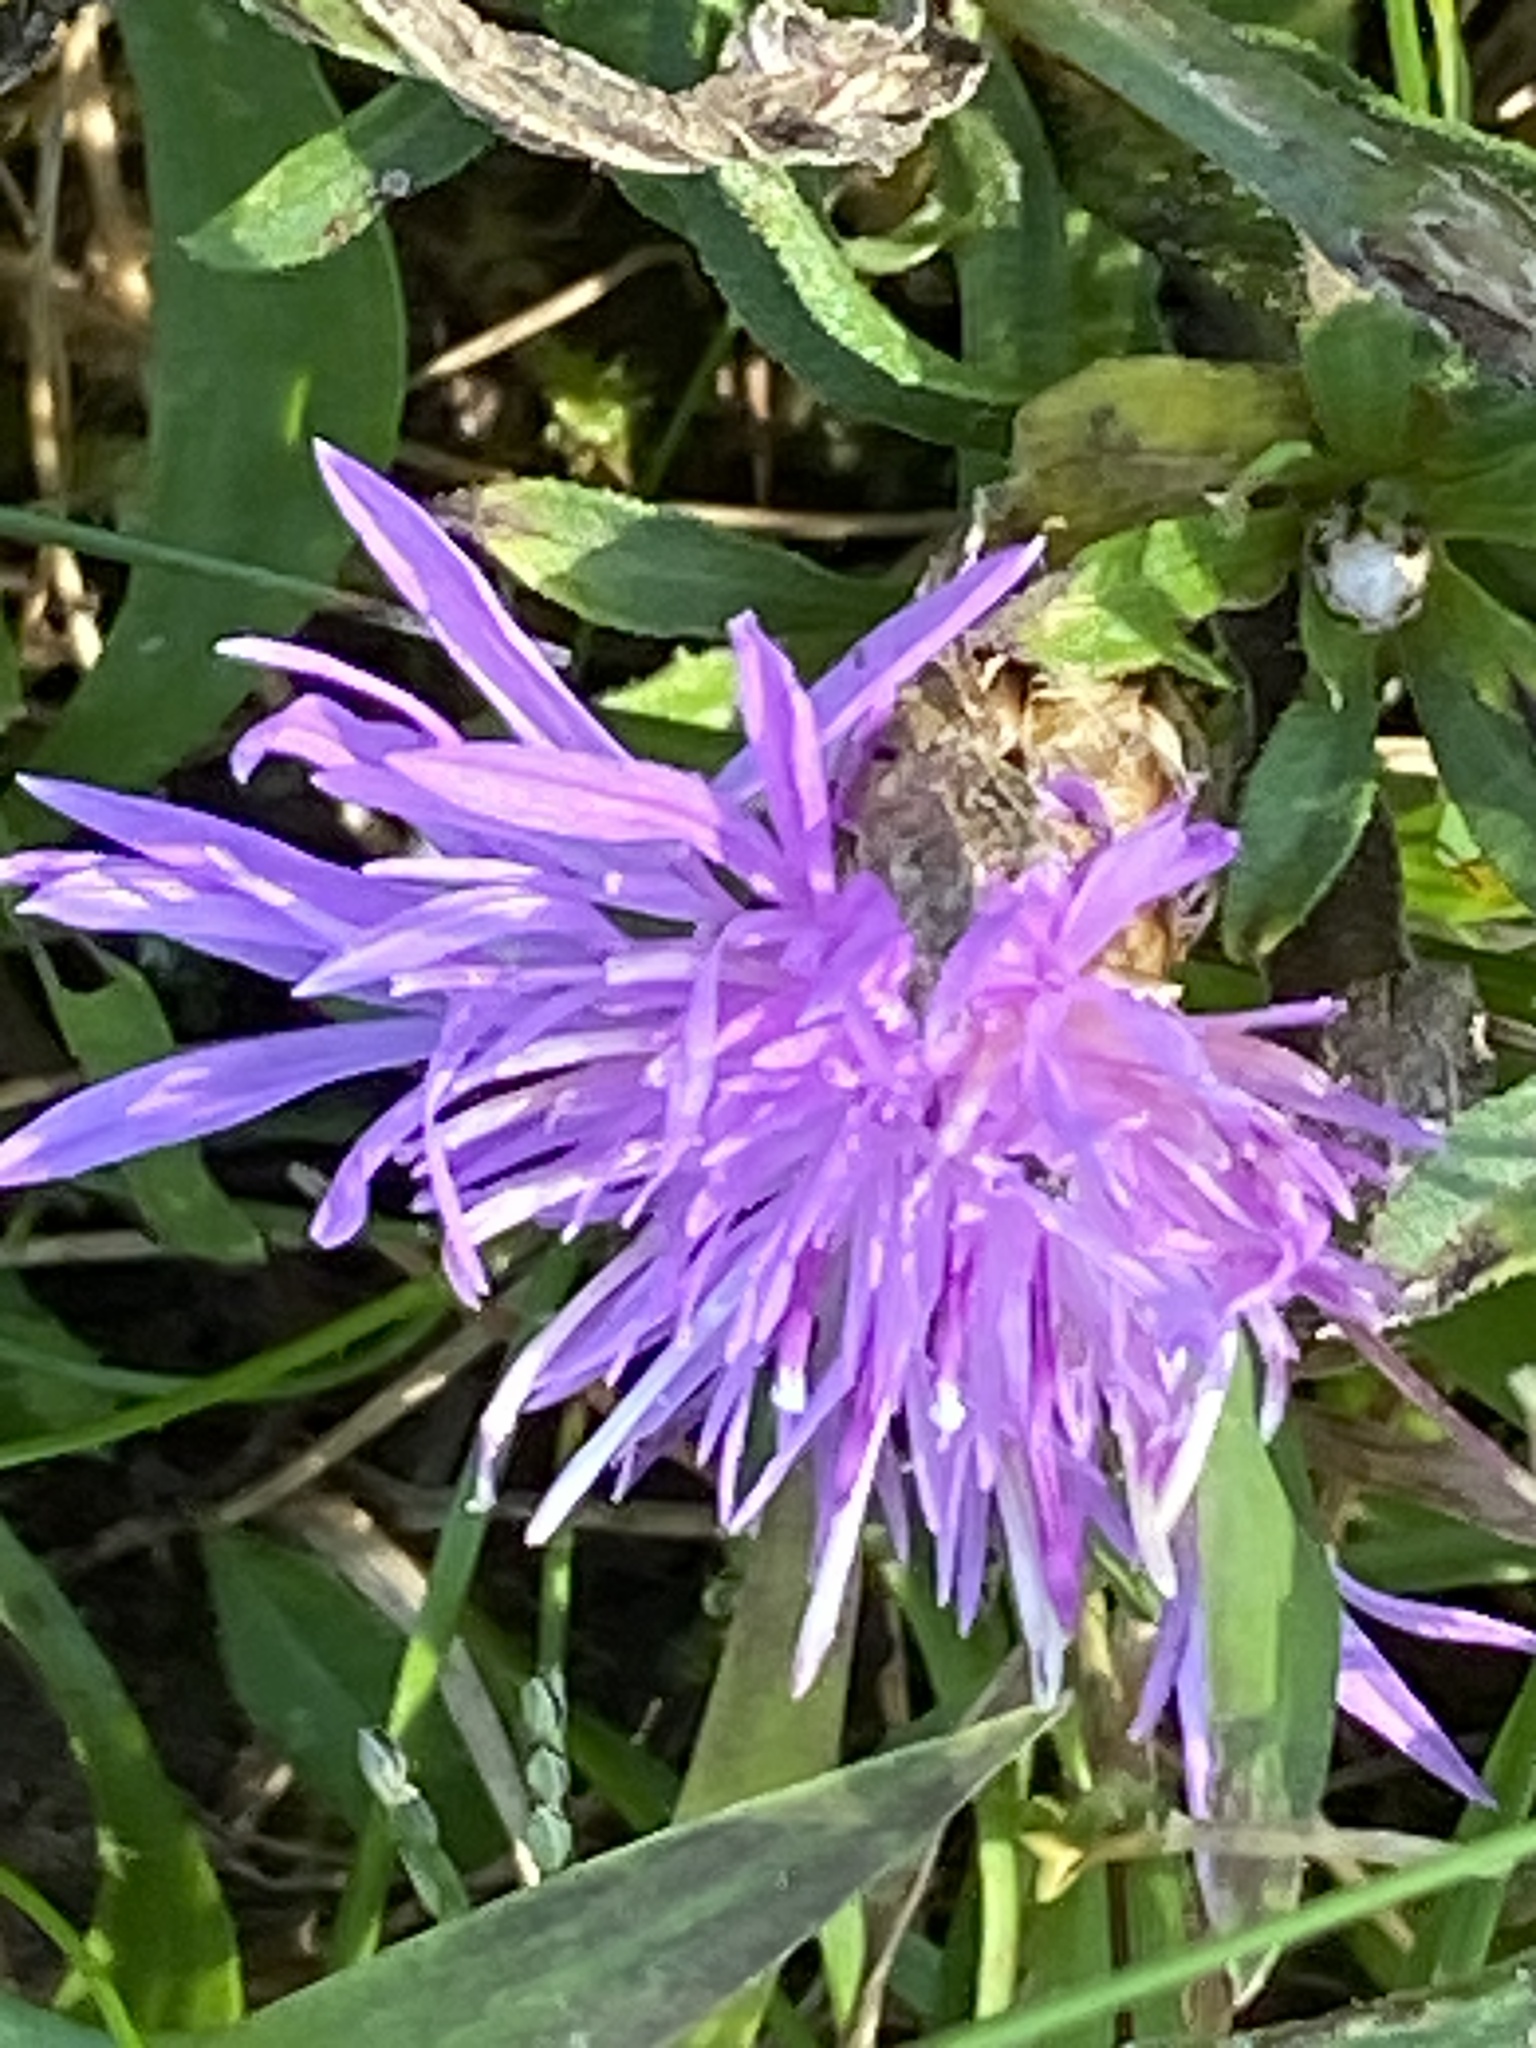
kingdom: Plantae
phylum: Tracheophyta
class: Magnoliopsida
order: Asterales
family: Asteraceae
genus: Centaurea
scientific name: Centaurea moncktonii
